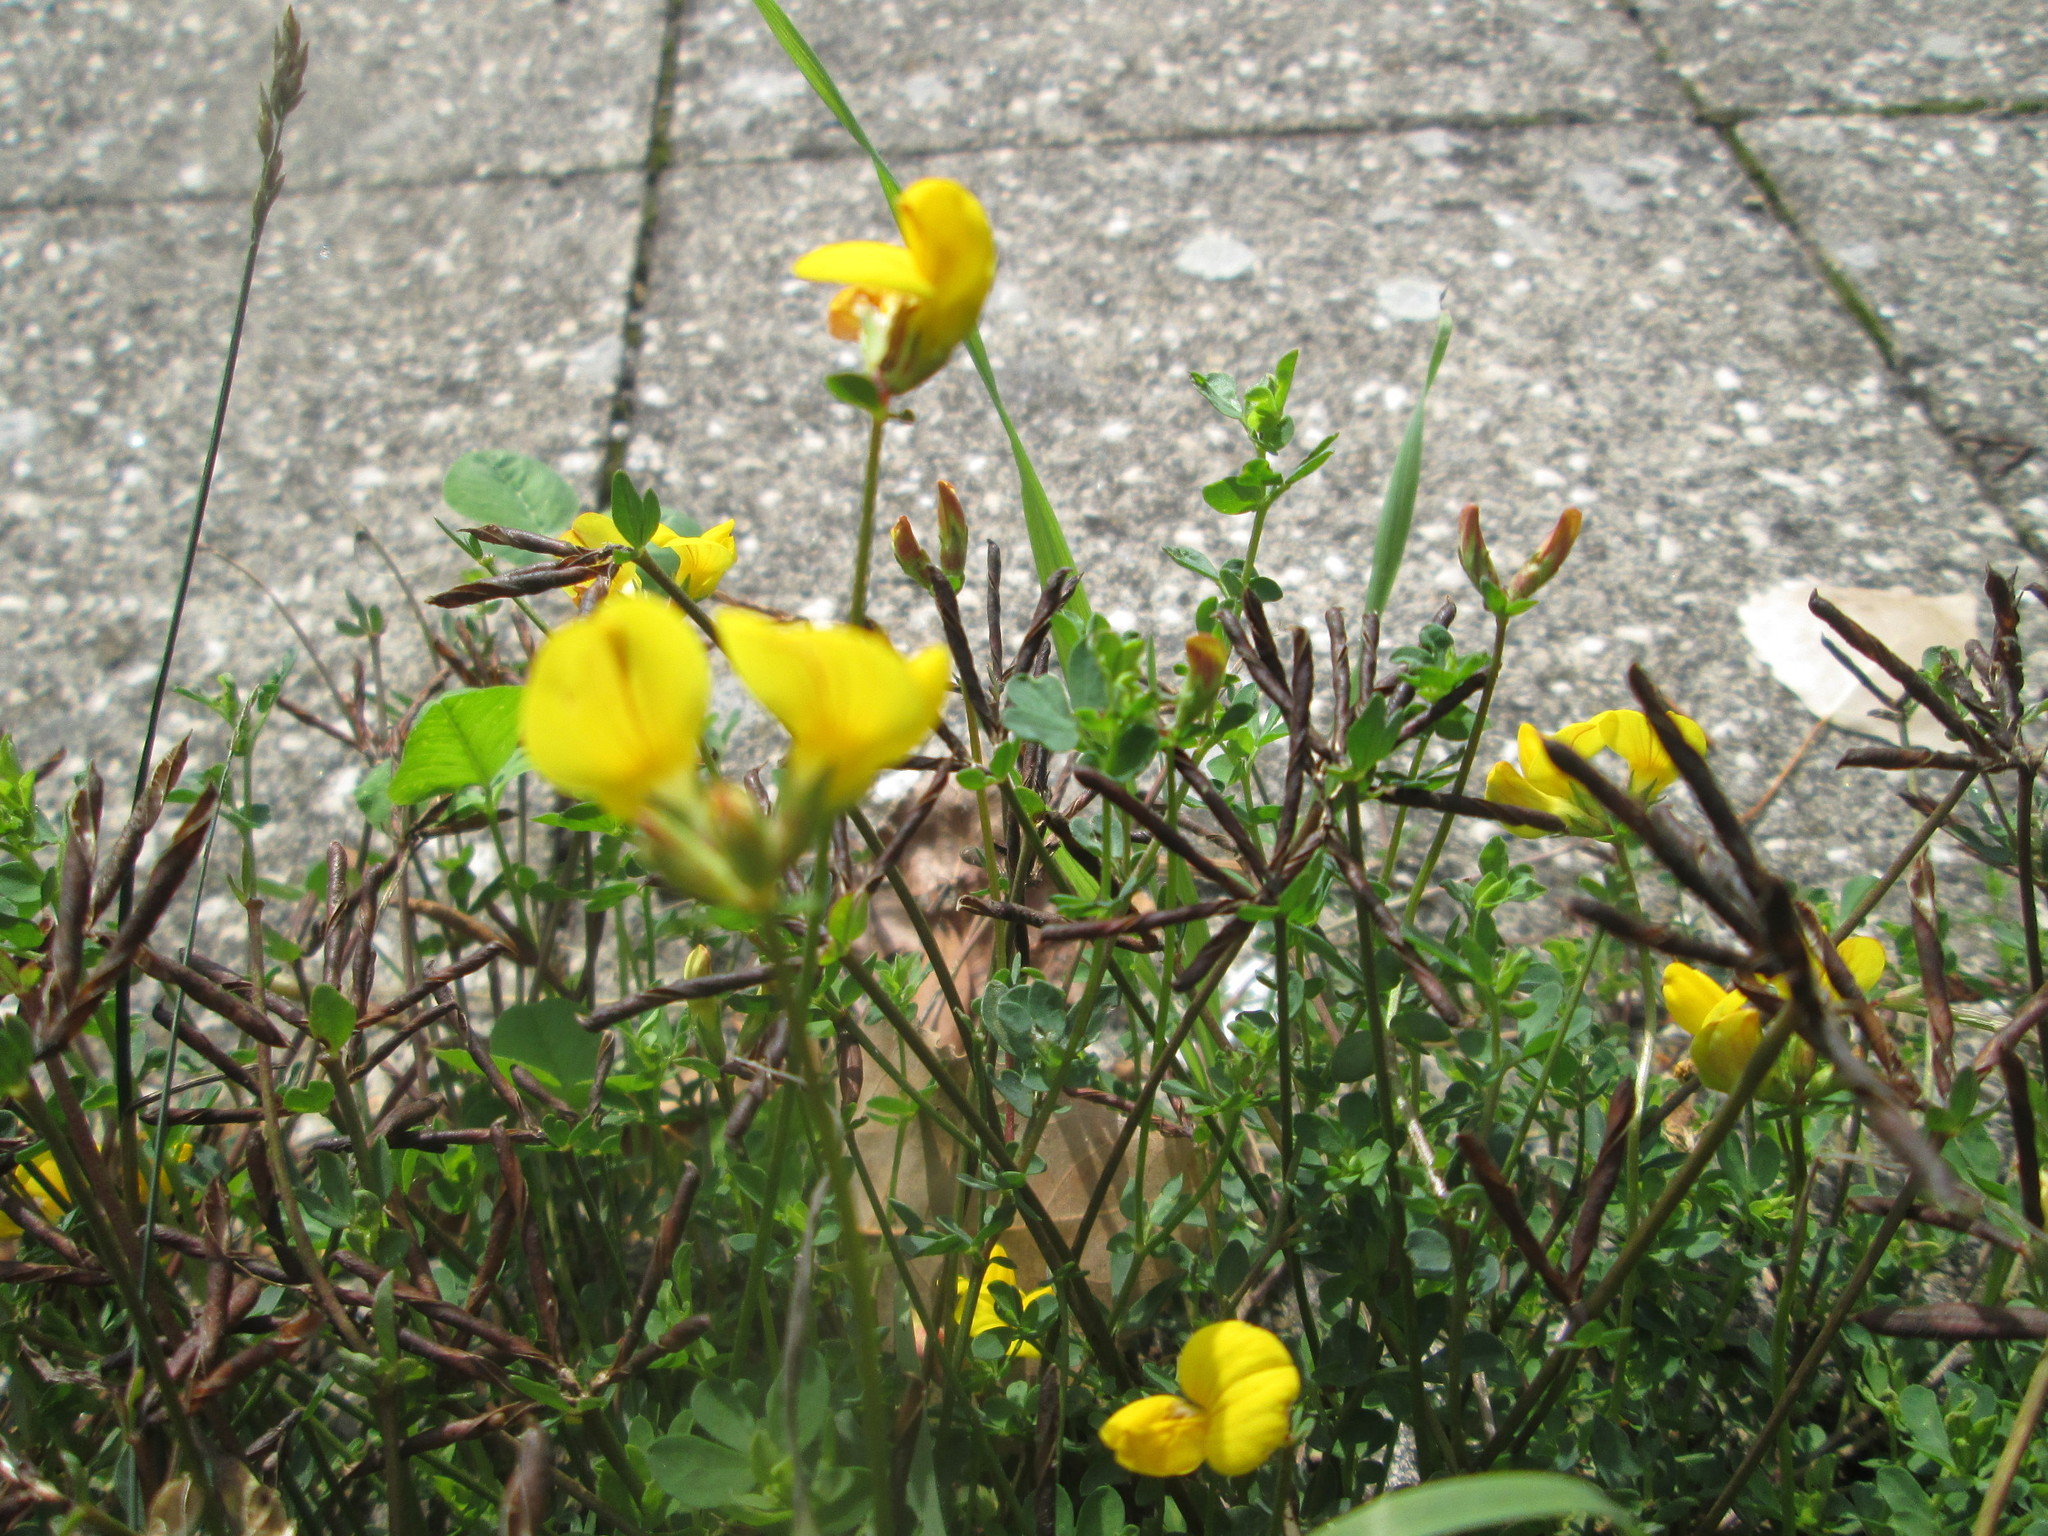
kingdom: Plantae
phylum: Tracheophyta
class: Magnoliopsida
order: Fabales
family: Fabaceae
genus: Lotus
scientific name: Lotus corniculatus
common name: Common bird's-foot-trefoil
